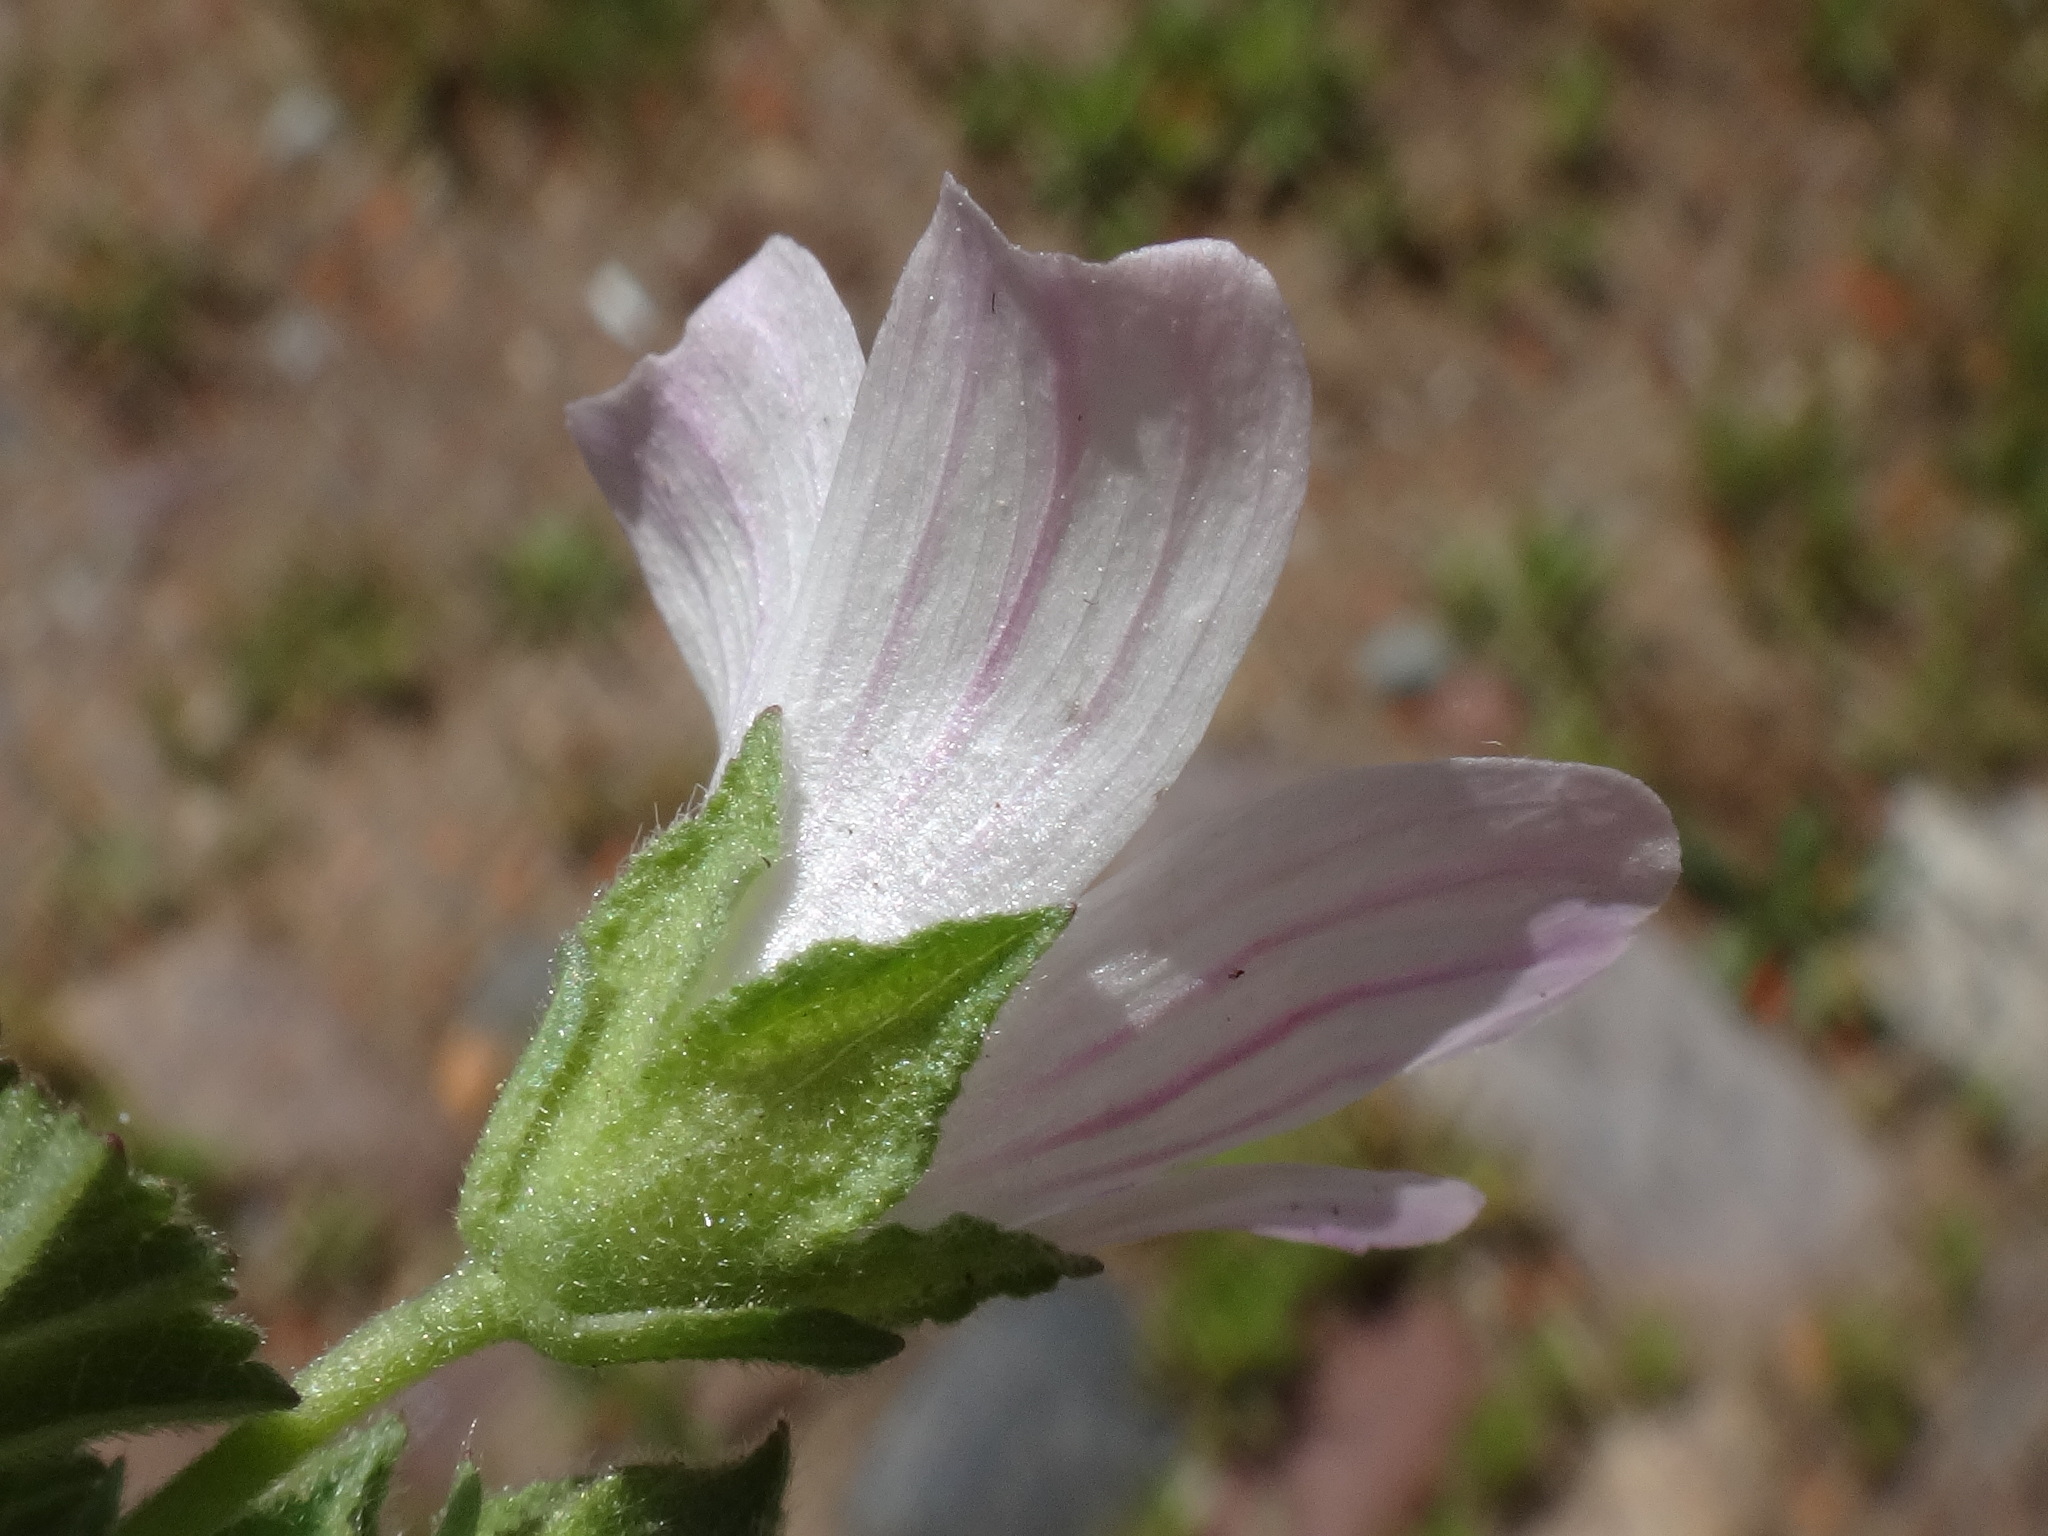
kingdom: Plantae
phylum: Tracheophyta
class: Magnoliopsida
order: Malvales
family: Malvaceae
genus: Malva
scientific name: Malva neglecta
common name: Common mallow
